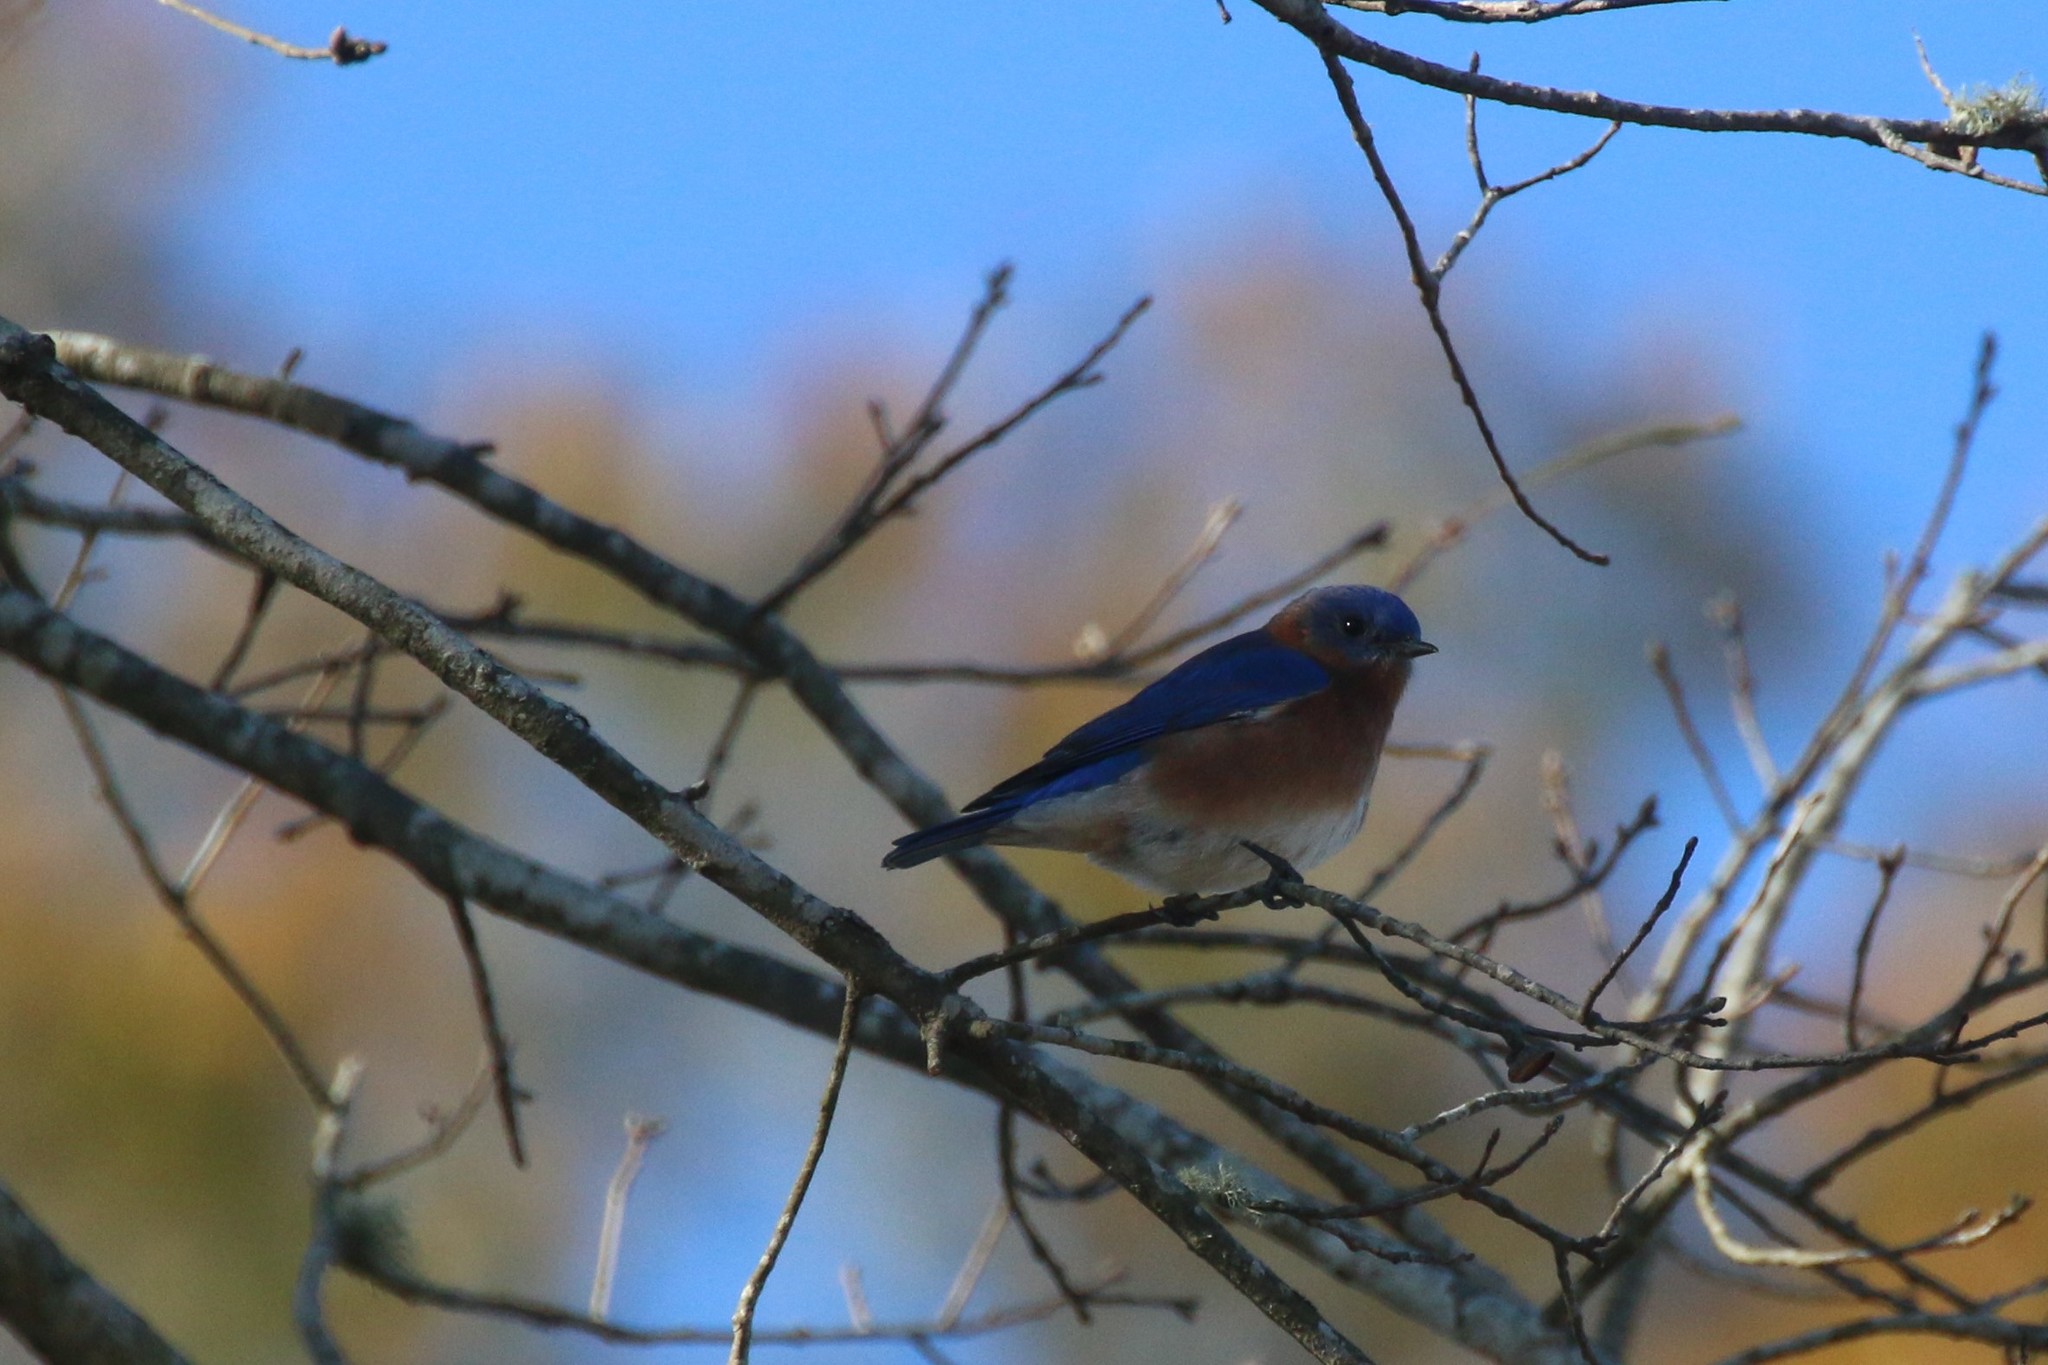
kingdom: Animalia
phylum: Chordata
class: Aves
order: Passeriformes
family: Turdidae
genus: Sialia
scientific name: Sialia sialis
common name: Eastern bluebird
